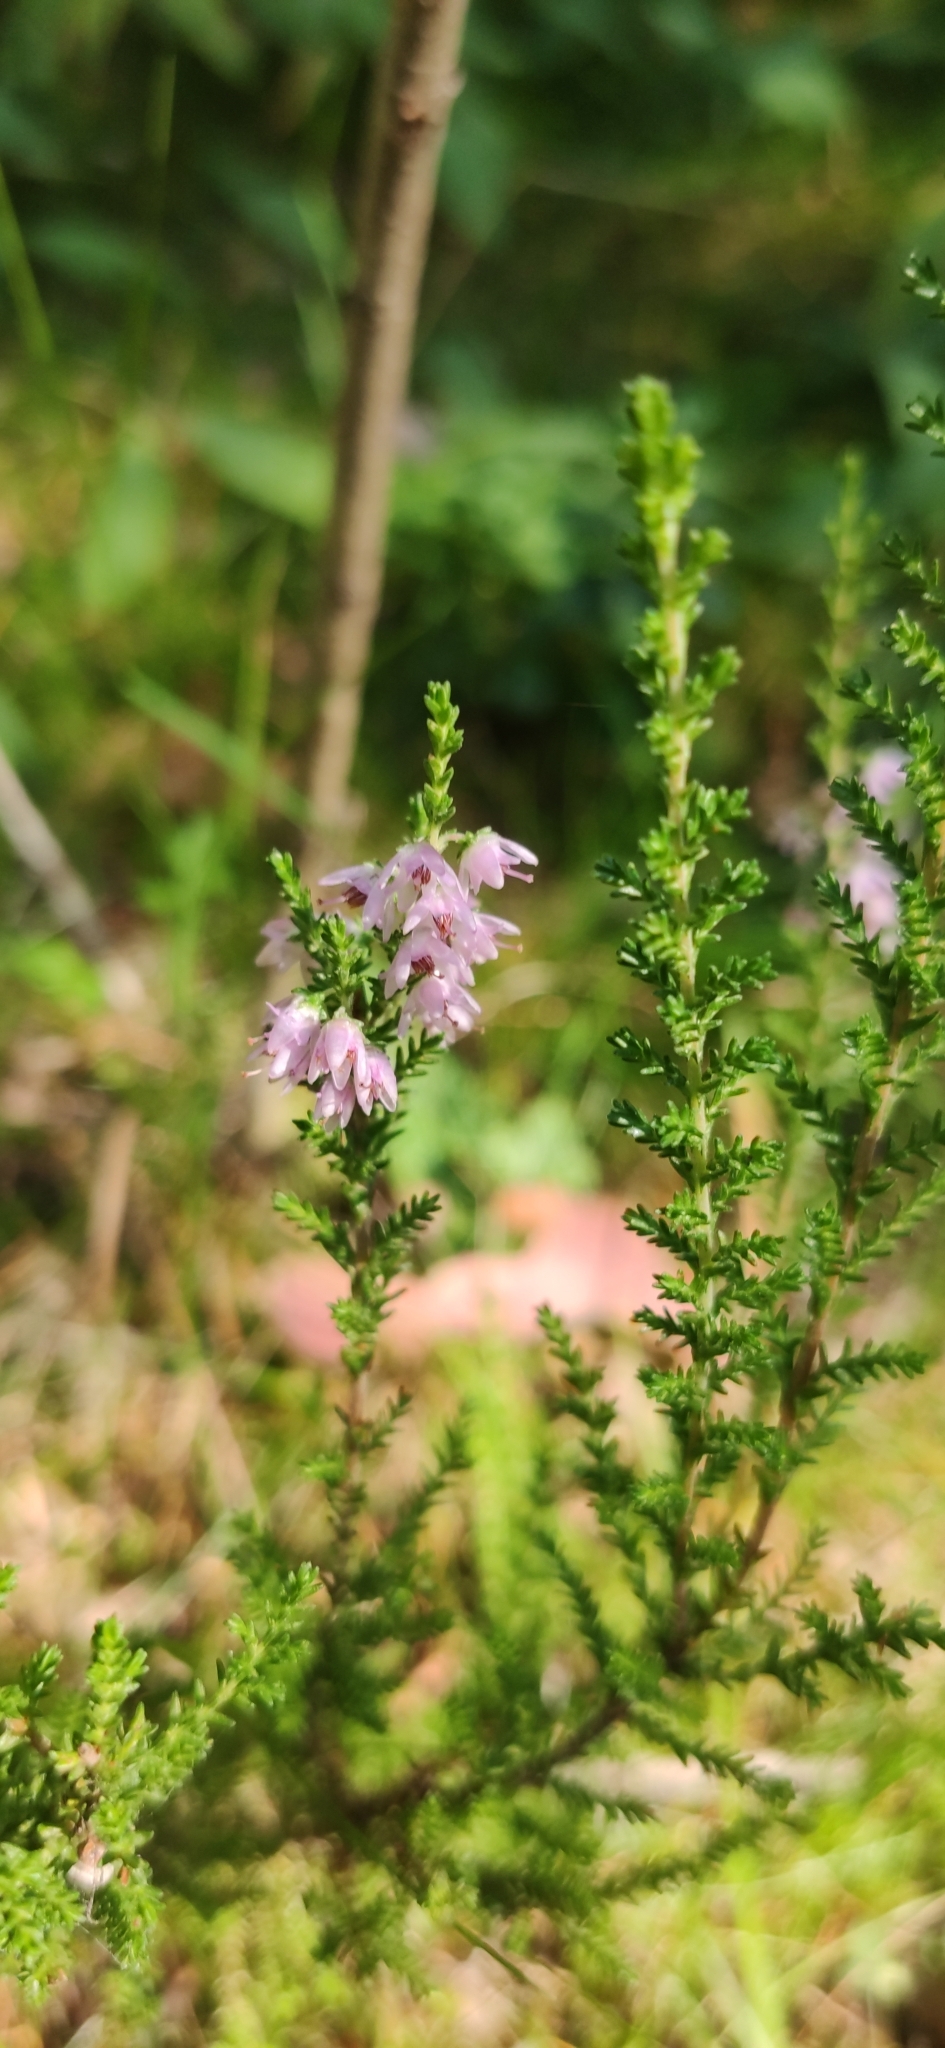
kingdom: Plantae
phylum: Tracheophyta
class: Magnoliopsida
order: Ericales
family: Ericaceae
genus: Calluna
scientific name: Calluna vulgaris
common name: Heather
